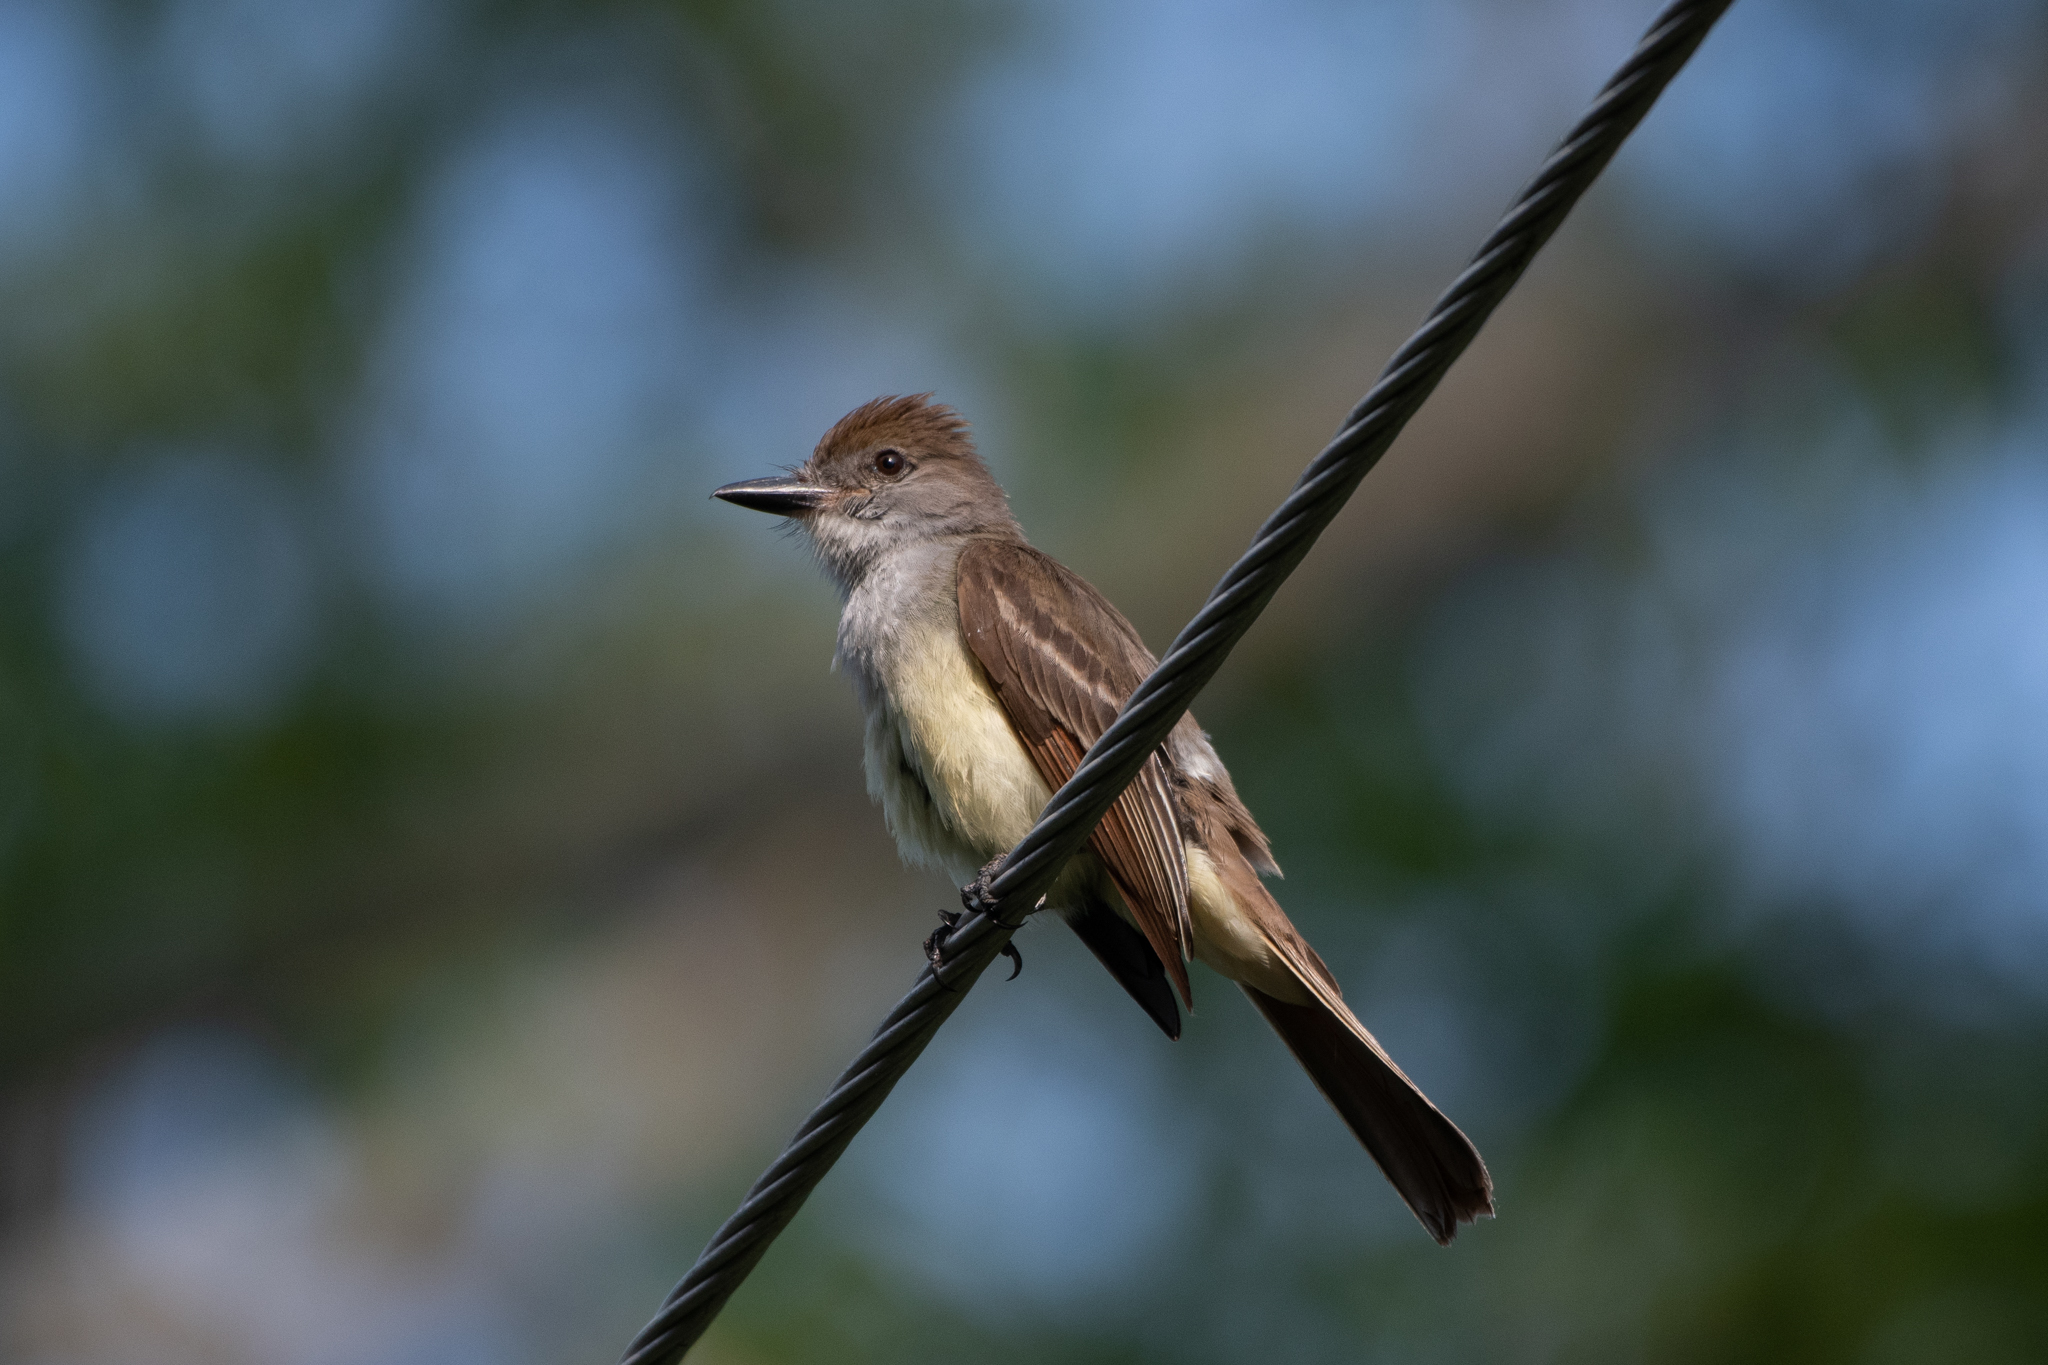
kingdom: Animalia
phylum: Chordata
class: Aves
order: Passeriformes
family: Tyrannidae
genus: Myiarchus
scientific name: Myiarchus tyrannulus
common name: Brown-crested flycatcher
